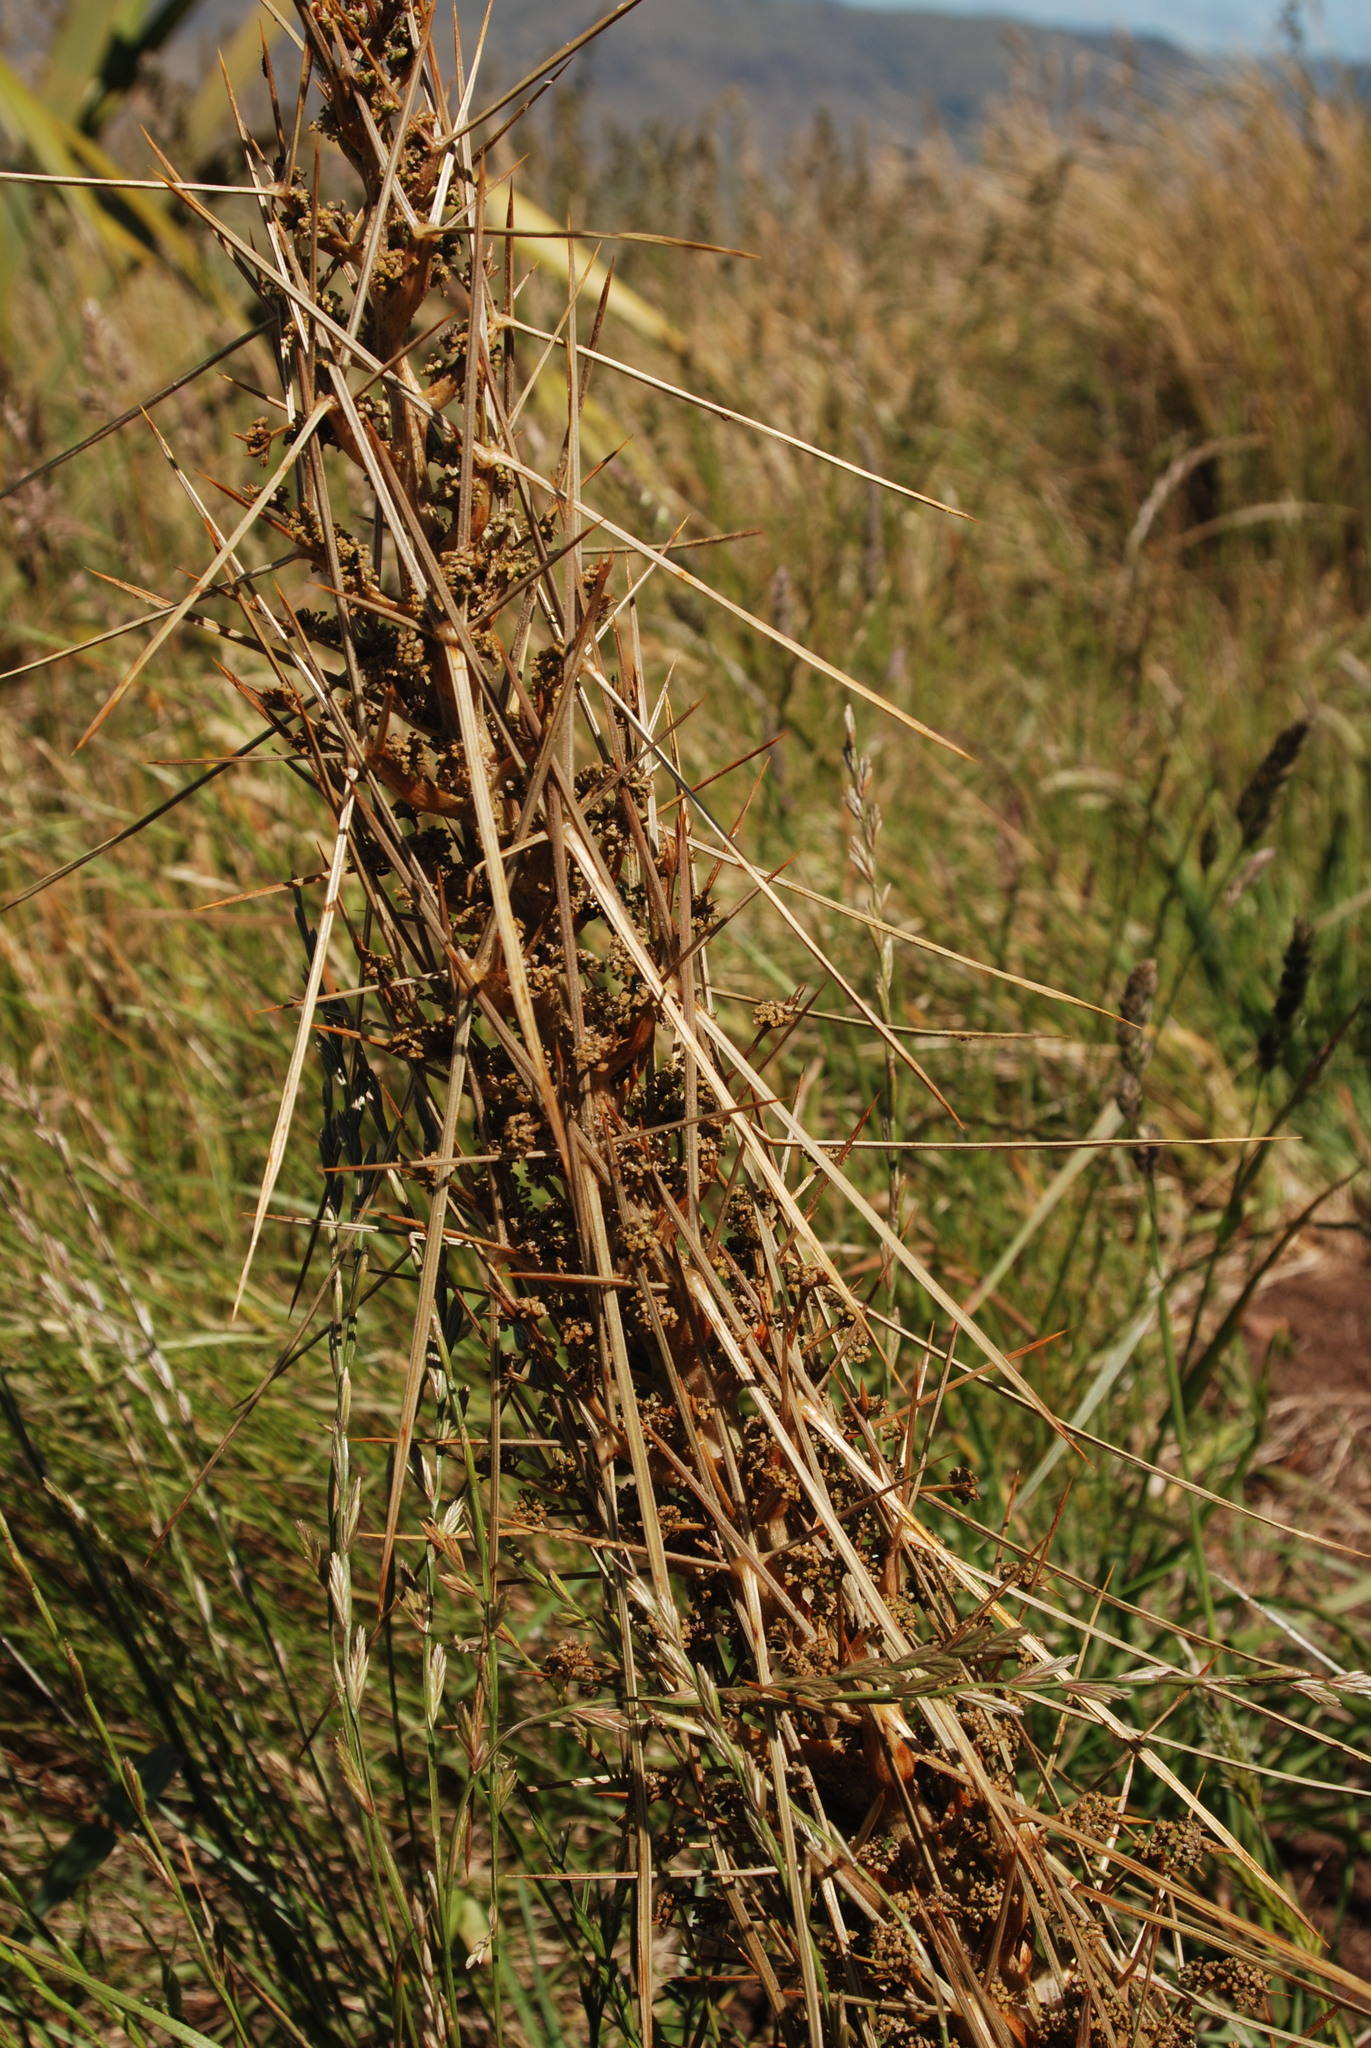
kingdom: Plantae
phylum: Tracheophyta
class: Magnoliopsida
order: Apiales
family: Apiaceae
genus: Aciphylla
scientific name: Aciphylla subflabellata
